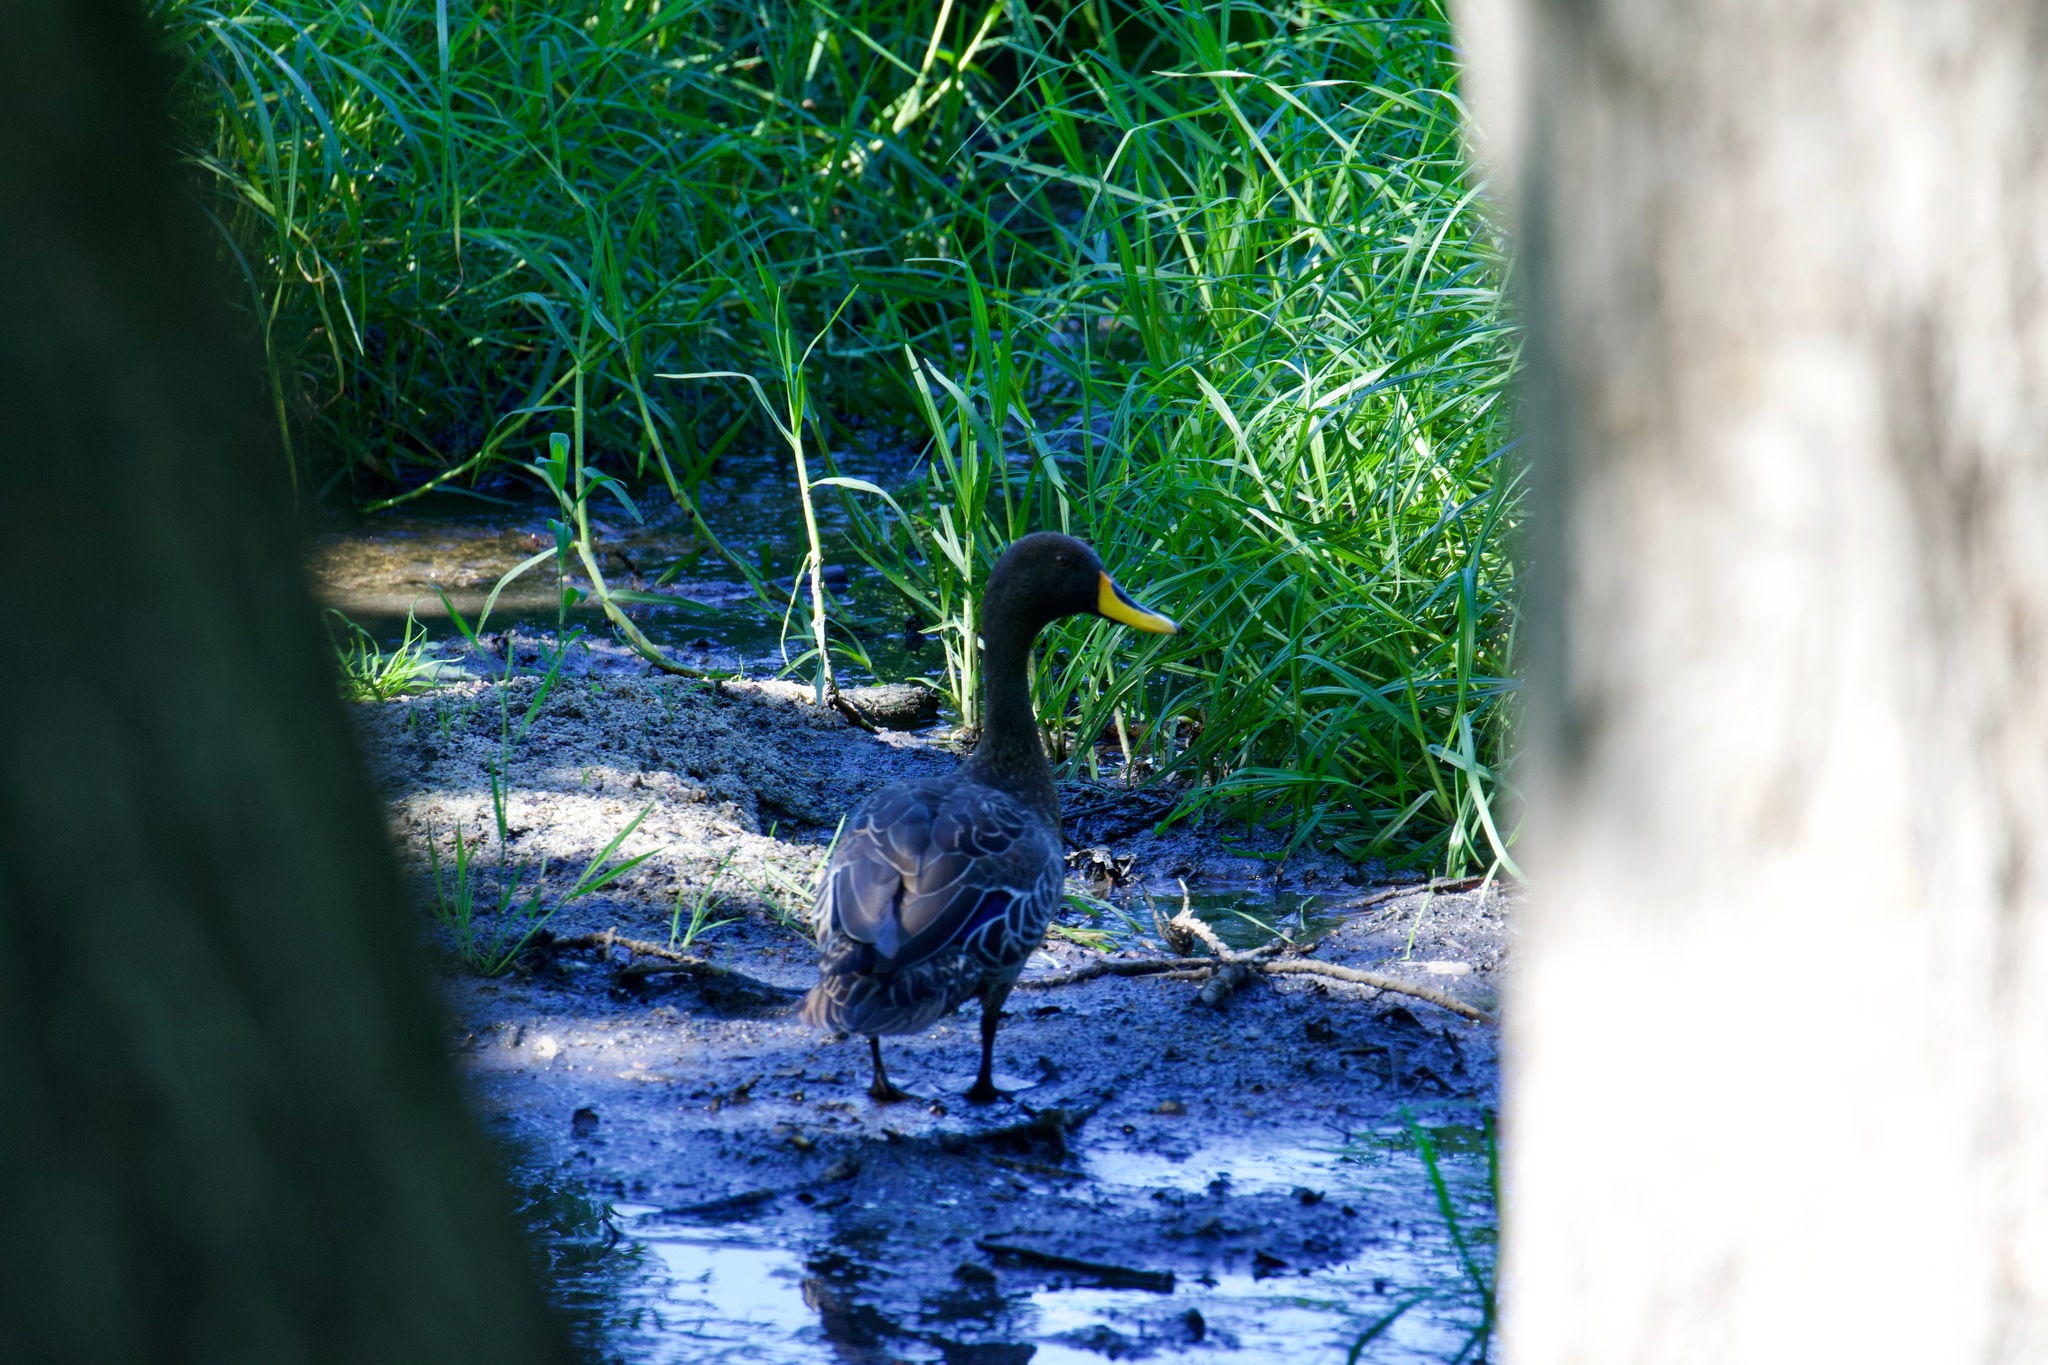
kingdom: Animalia
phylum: Chordata
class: Aves
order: Anseriformes
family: Anatidae
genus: Anas
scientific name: Anas undulata
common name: Yellow-billed duck
